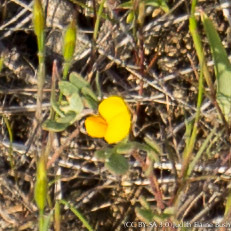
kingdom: Plantae
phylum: Tracheophyta
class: Magnoliopsida
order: Fabales
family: Fabaceae
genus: Acmispon
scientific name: Acmispon wrangelianus
